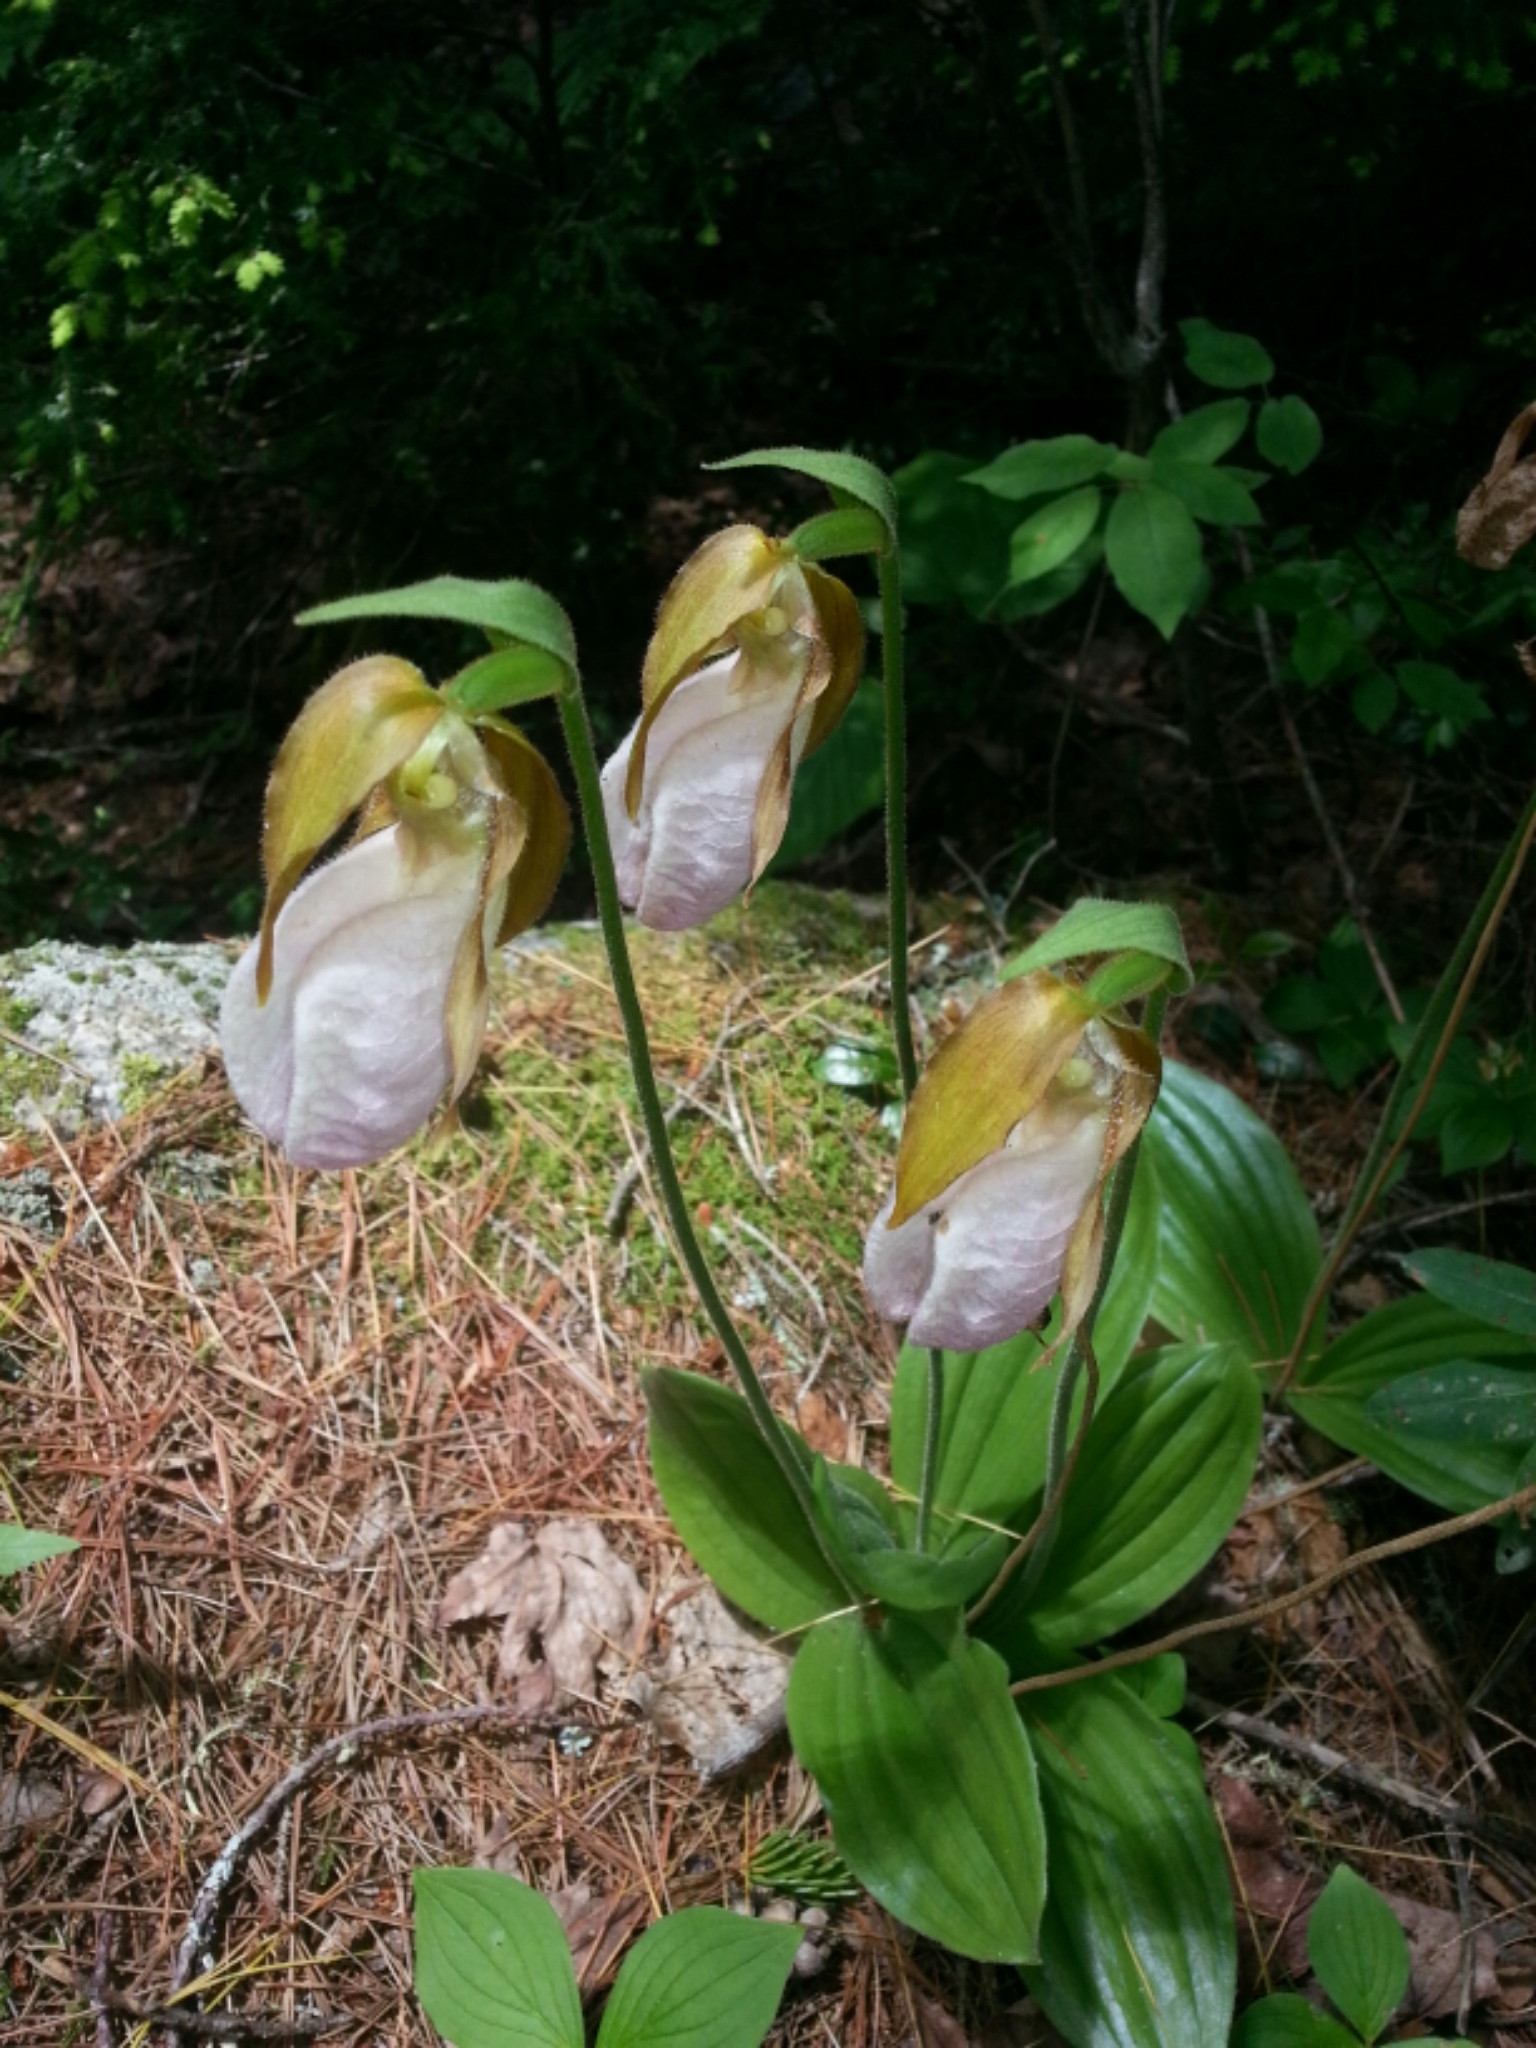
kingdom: Plantae
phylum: Tracheophyta
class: Liliopsida
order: Asparagales
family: Orchidaceae
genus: Cypripedium
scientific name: Cypripedium acaule
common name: Pink lady's-slipper
